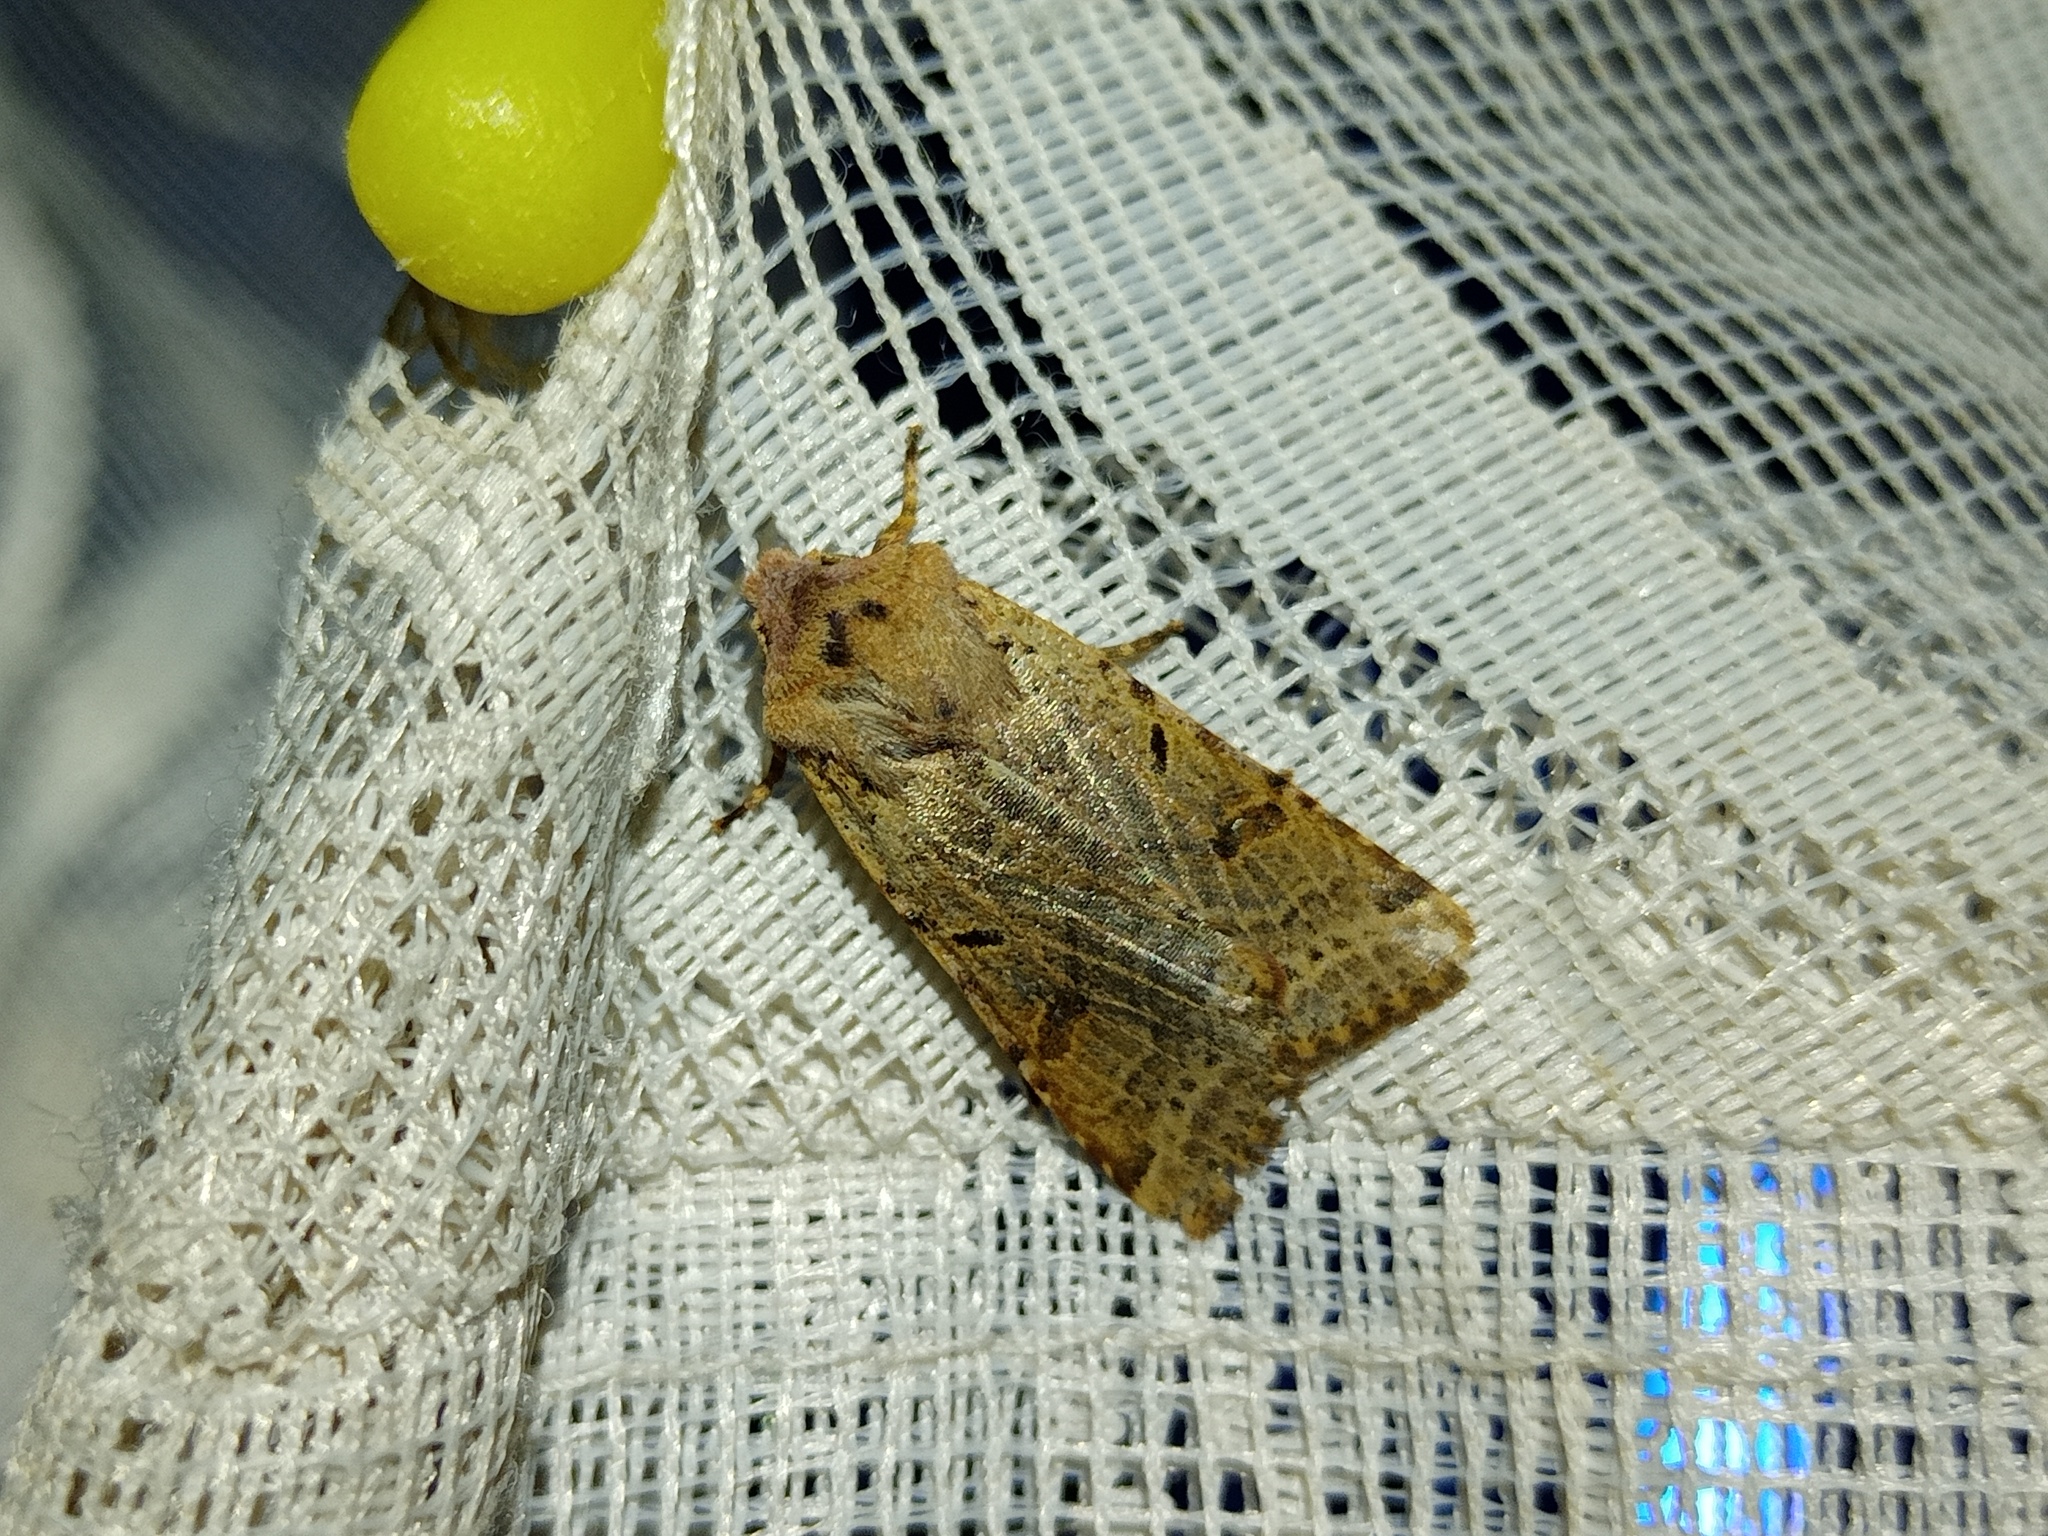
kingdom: Animalia
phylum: Arthropoda
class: Insecta
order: Lepidoptera
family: Noctuidae
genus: Agrochola
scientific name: Agrochola lychnidis
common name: Beaded chestnut
